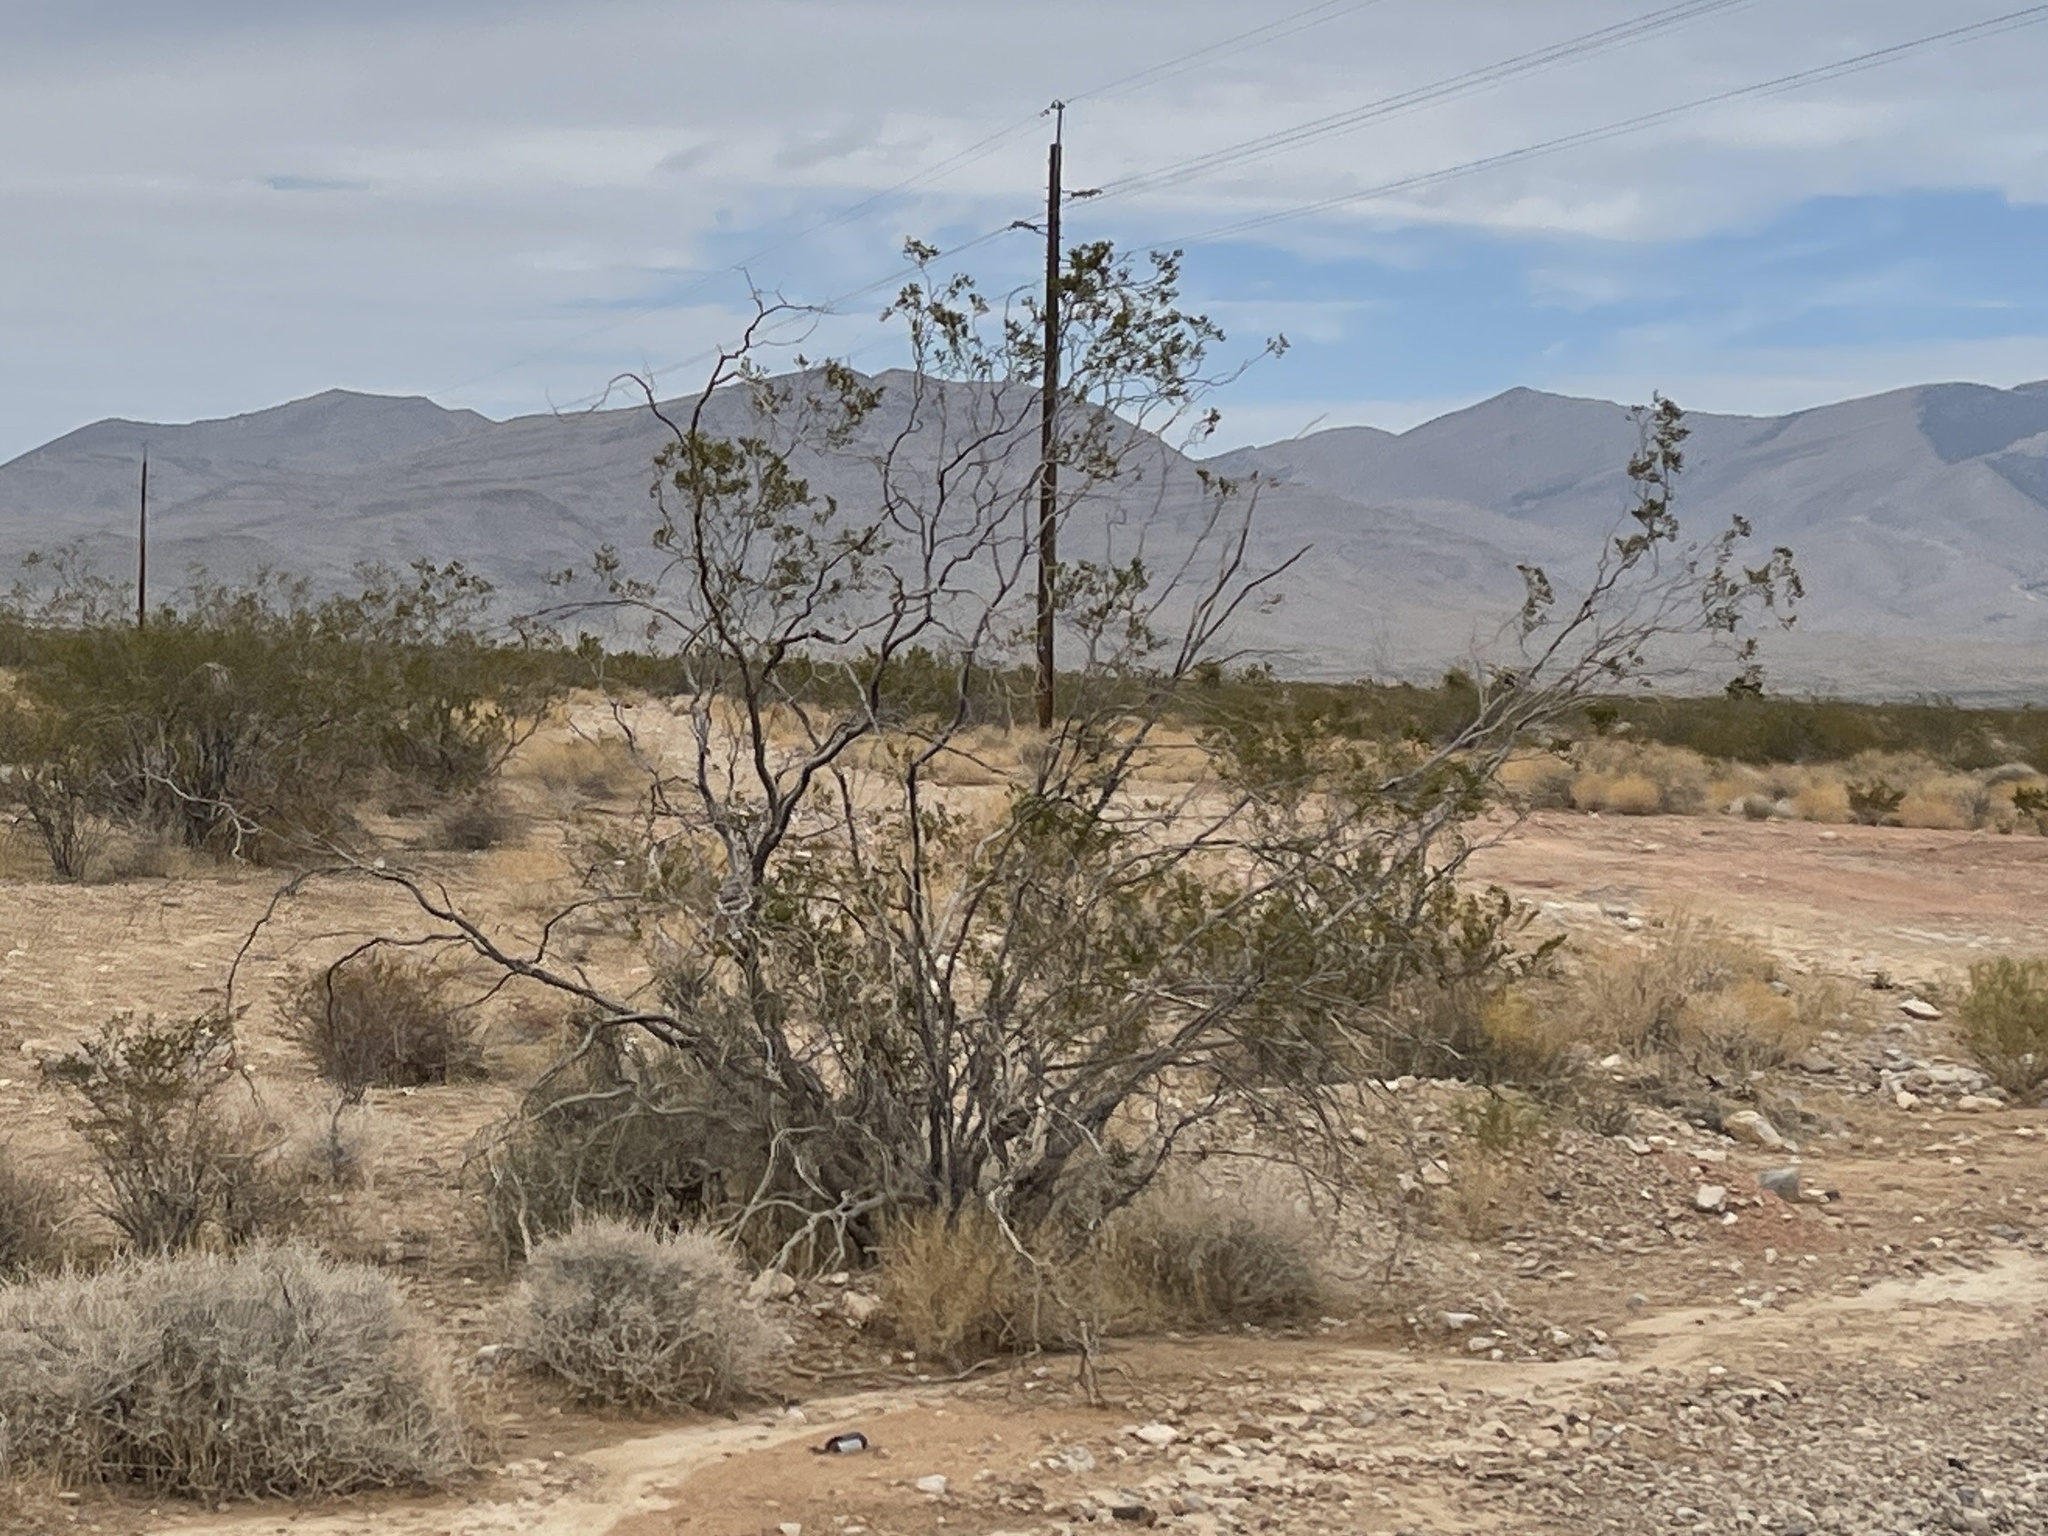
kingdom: Plantae
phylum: Tracheophyta
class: Magnoliopsida
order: Zygophyllales
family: Zygophyllaceae
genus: Larrea
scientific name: Larrea tridentata
